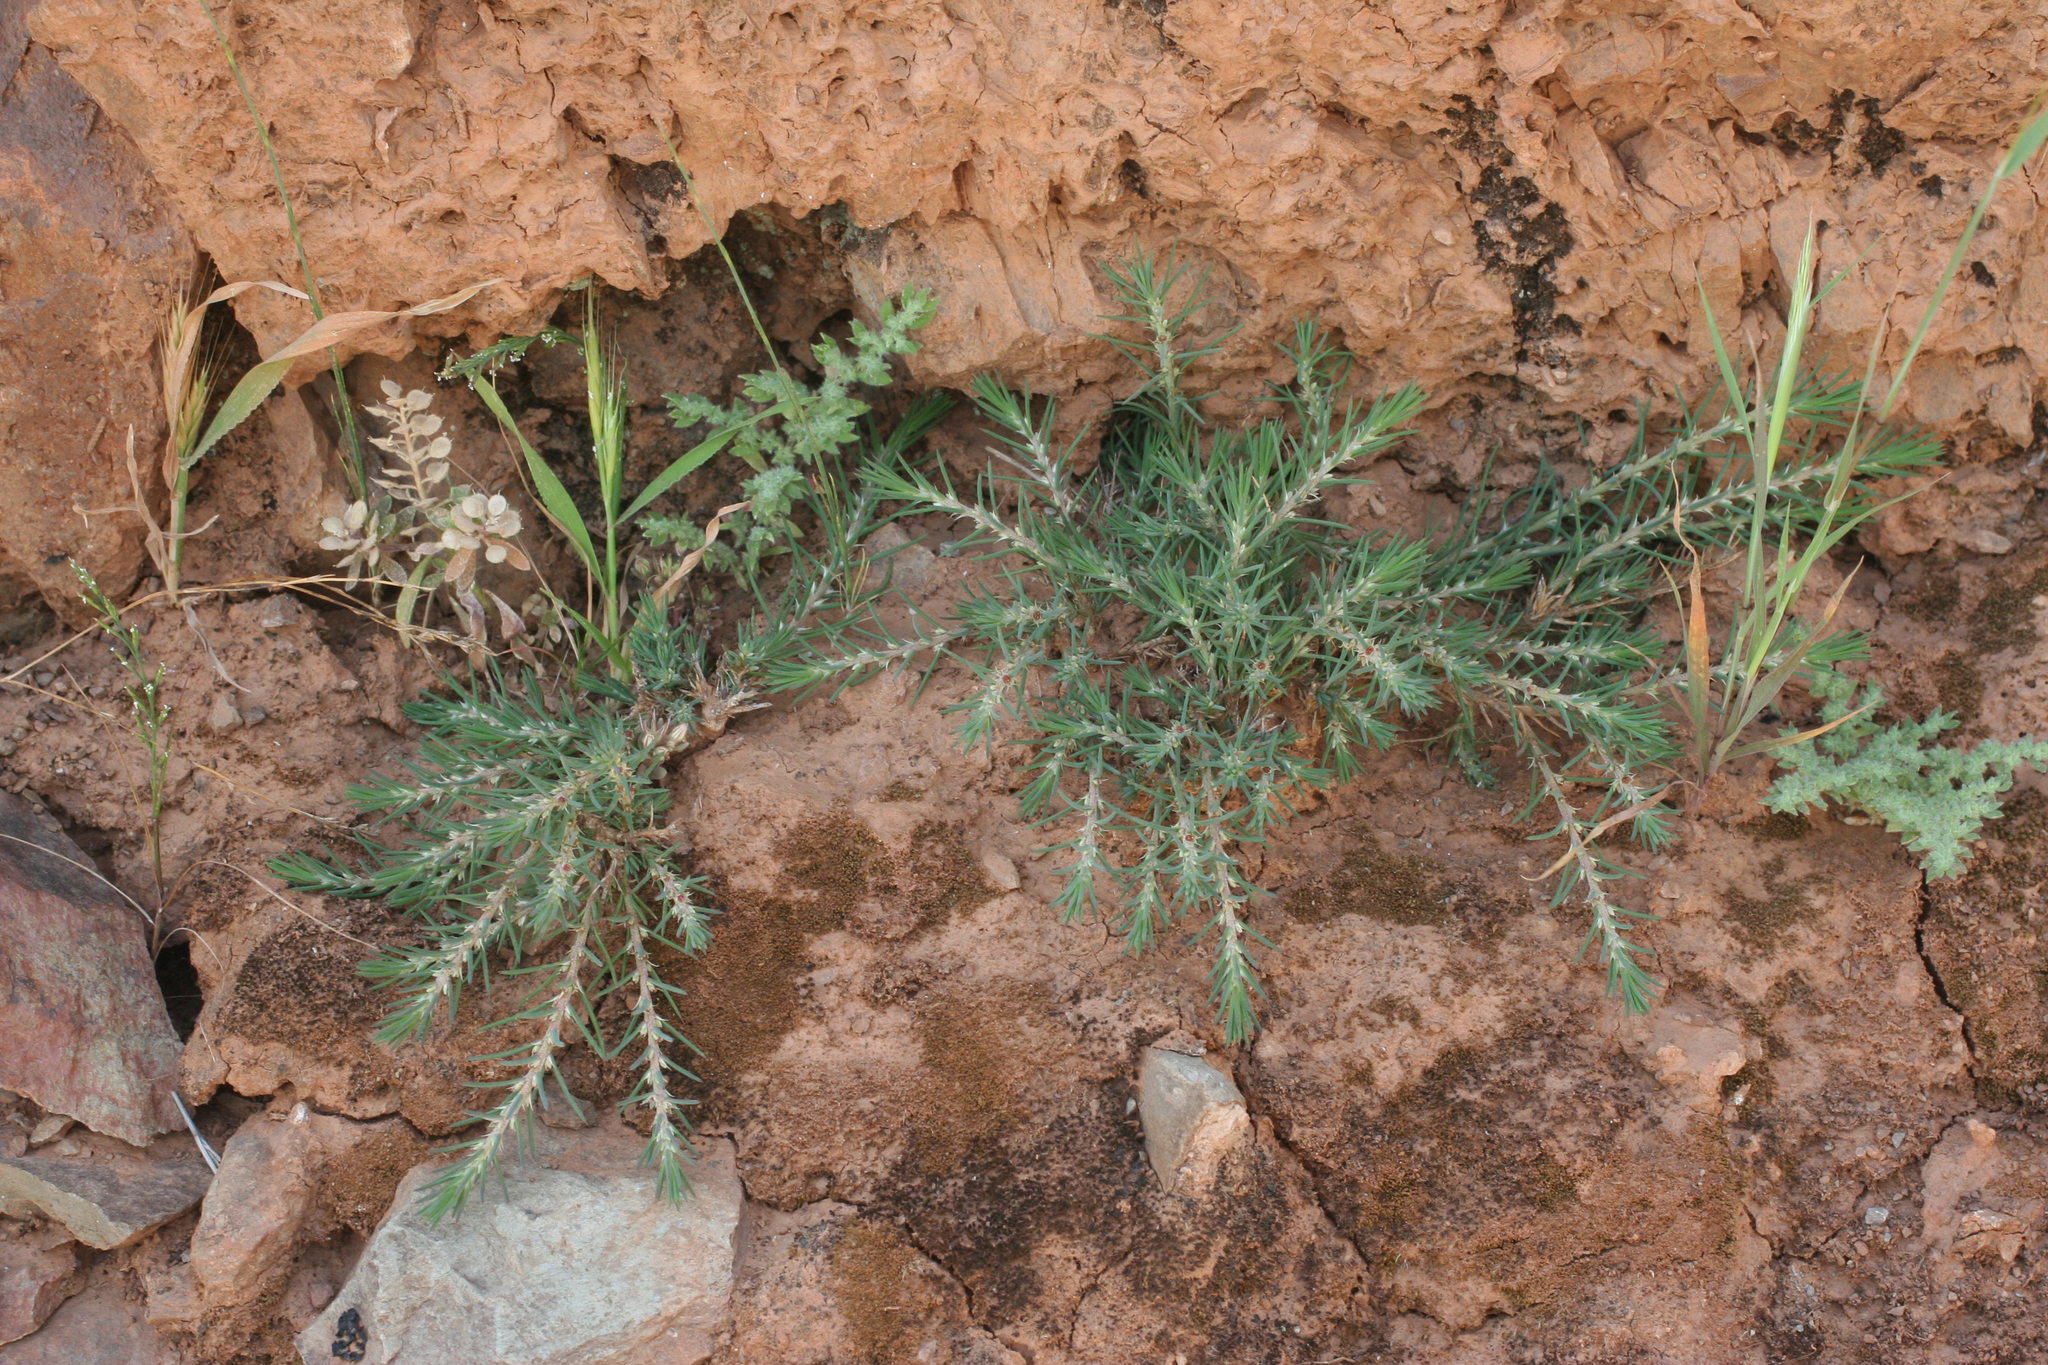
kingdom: Plantae
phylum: Tracheophyta
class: Magnoliopsida
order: Caryophyllales
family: Amaranthaceae
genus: Polycnemum
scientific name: Polycnemum fontanesii
